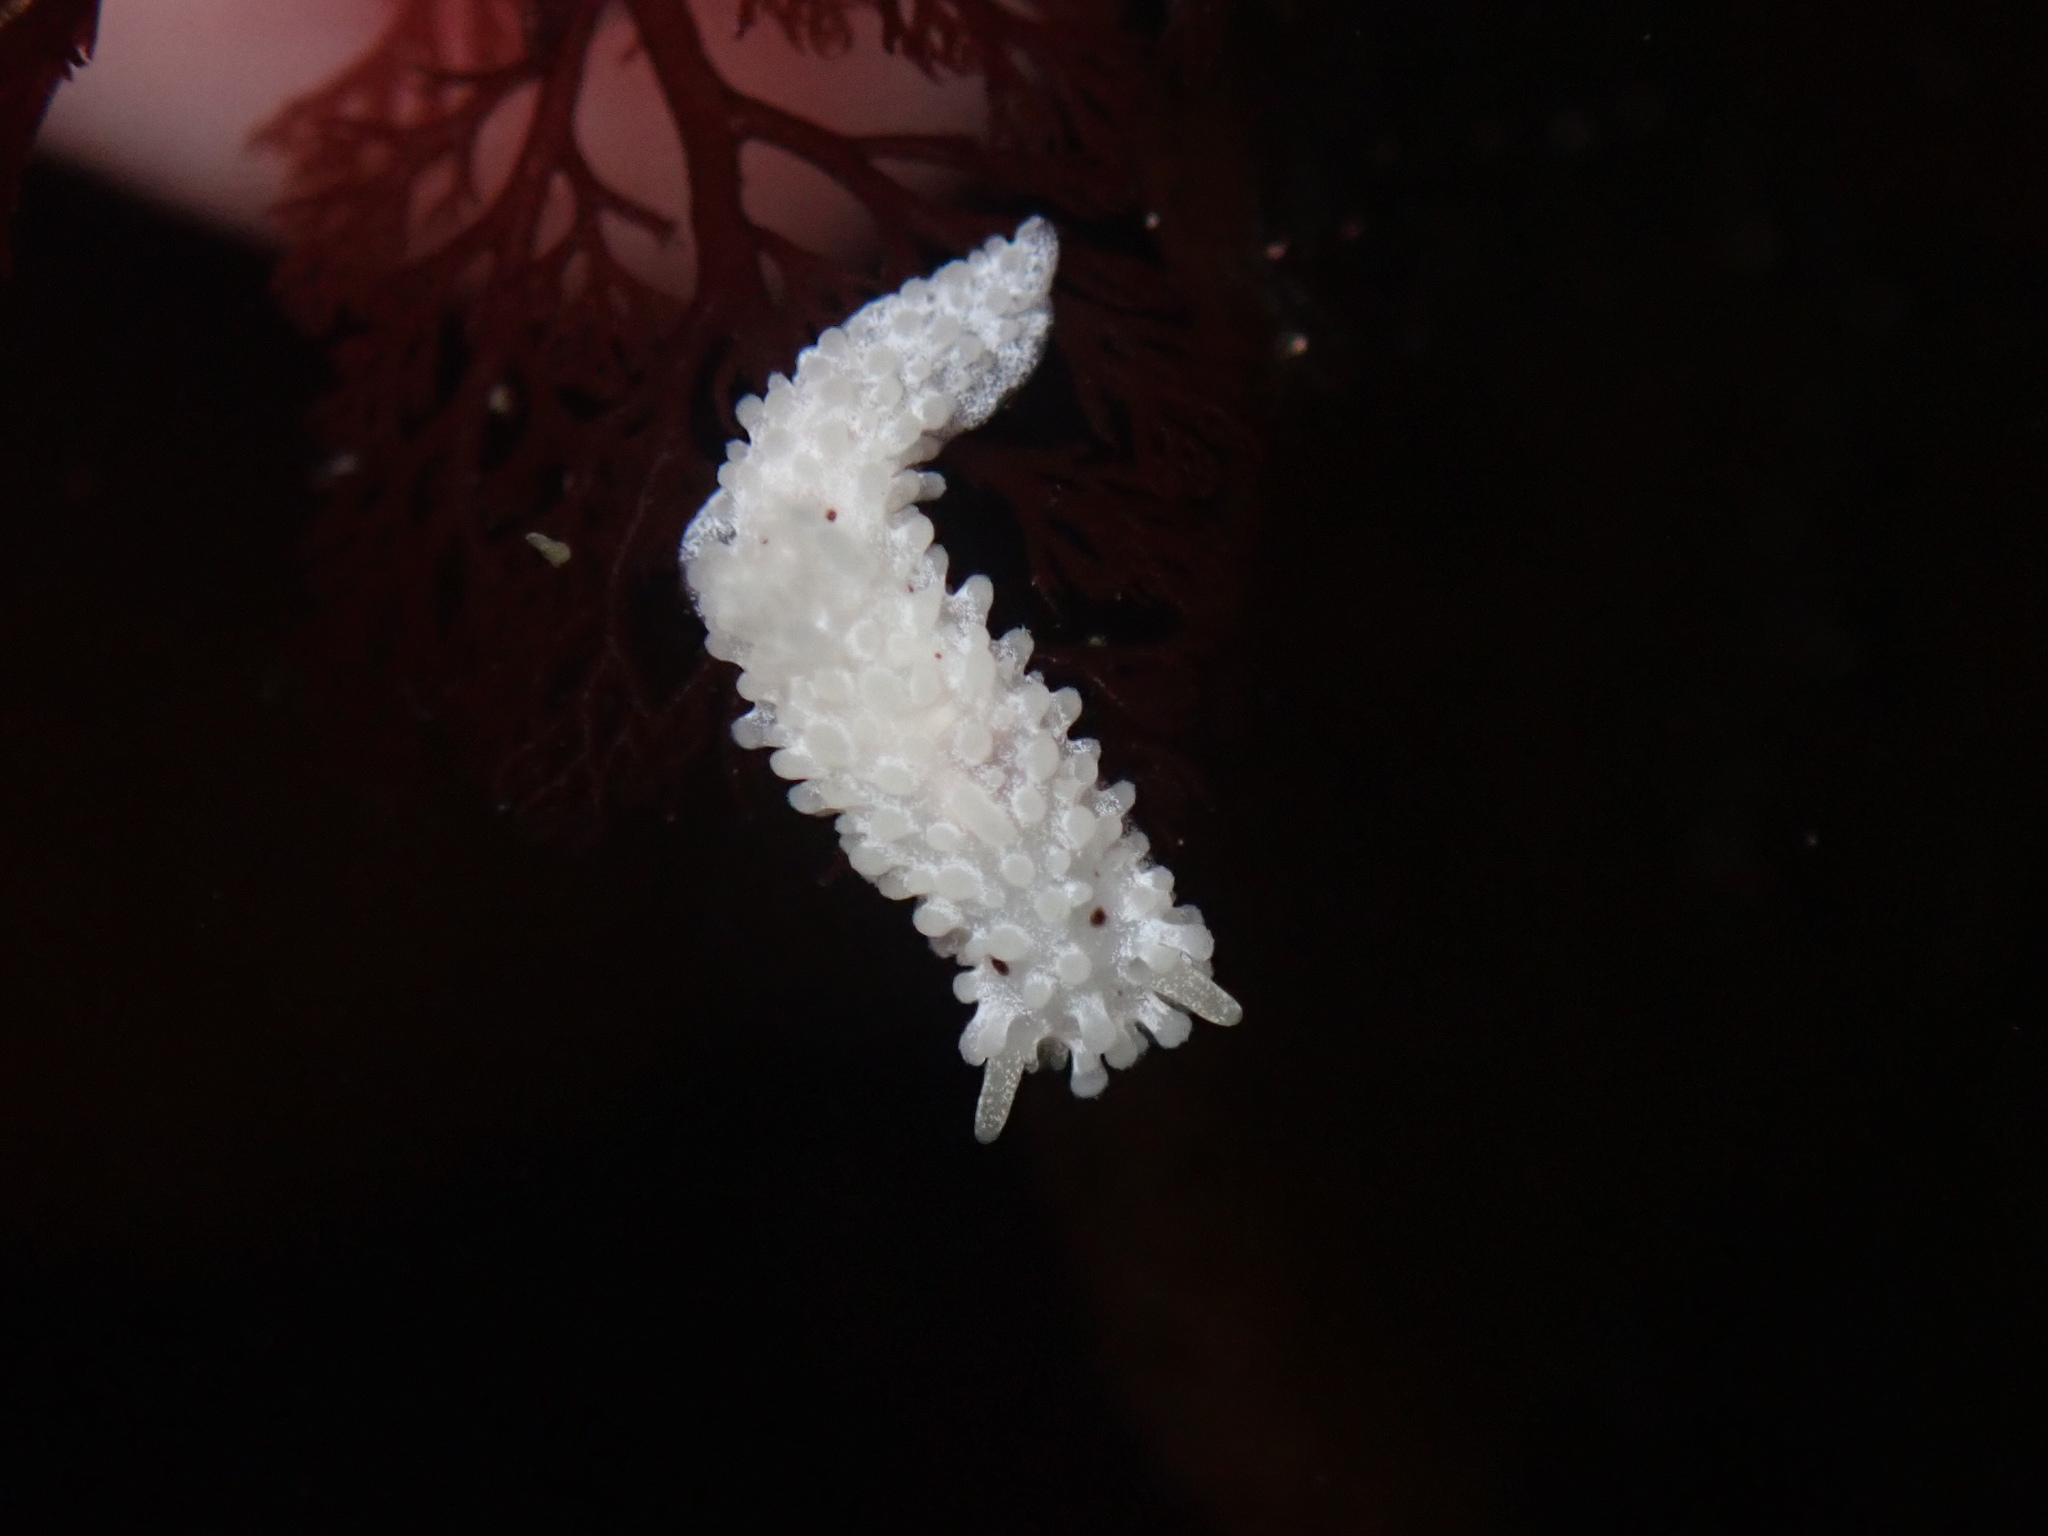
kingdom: Animalia
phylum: Mollusca
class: Gastropoda
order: Nudibranchia
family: Aegiridae
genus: Aegires
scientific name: Aegires albopunctatus
